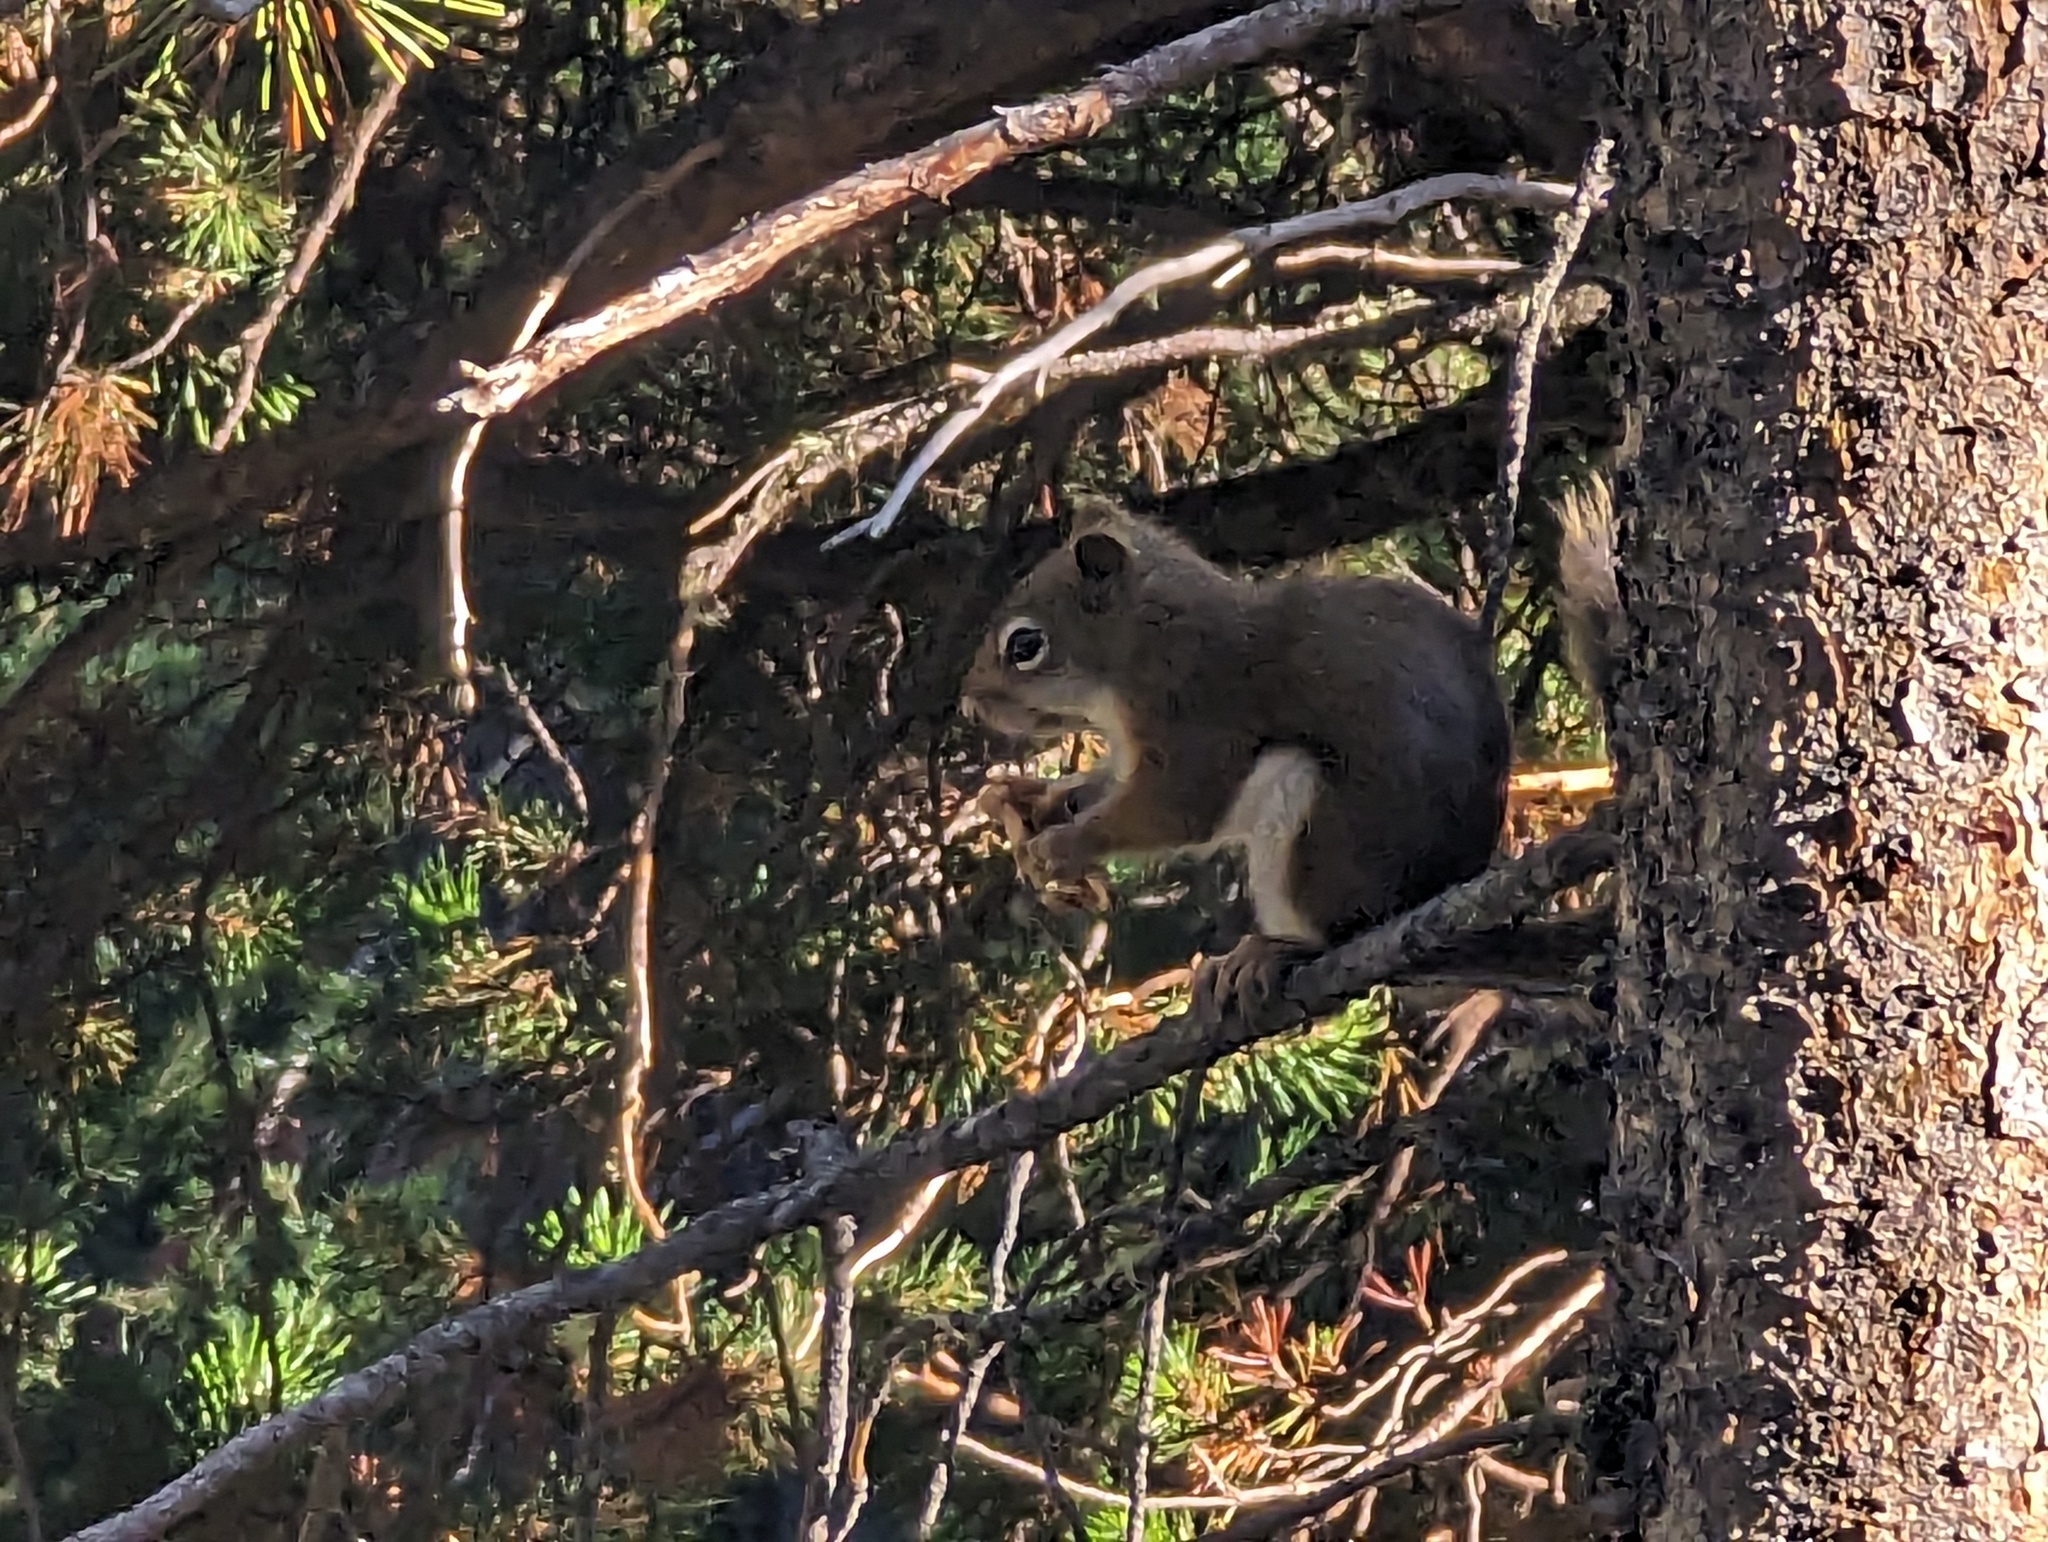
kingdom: Animalia
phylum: Chordata
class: Mammalia
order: Rodentia
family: Sciuridae
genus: Tamiasciurus
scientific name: Tamiasciurus hudsonicus
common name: Red squirrel
